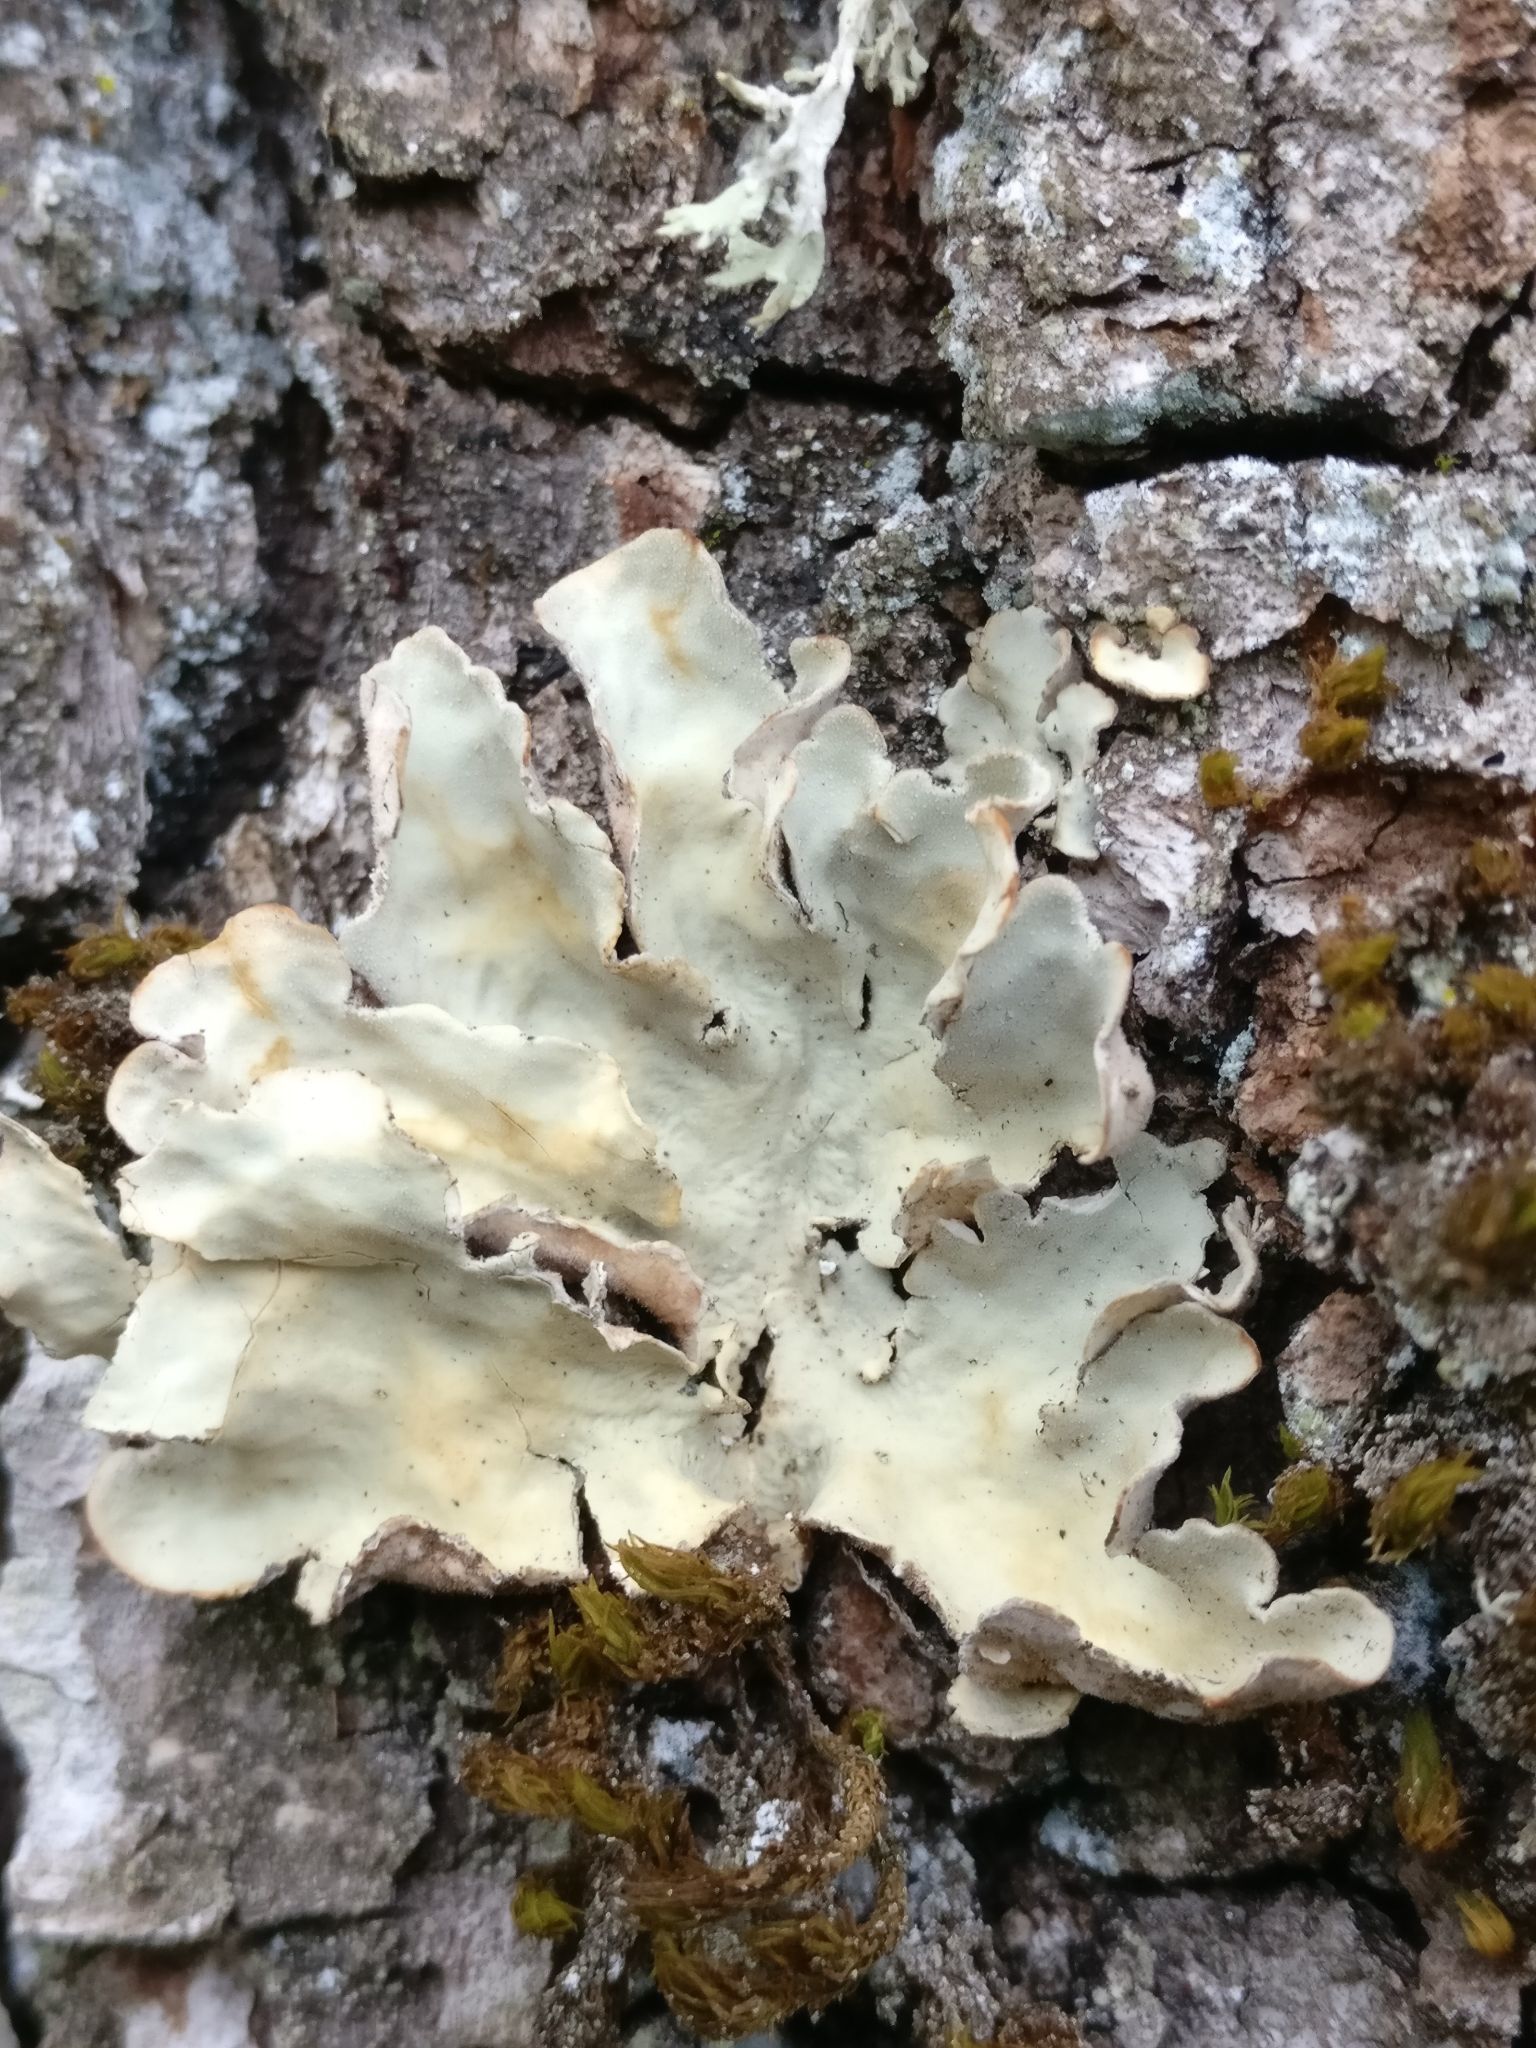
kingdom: Fungi
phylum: Ascomycota
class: Lecanoromycetes
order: Peltigerales
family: Lobariaceae
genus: Lobarina
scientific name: Lobarina scrobiculata
